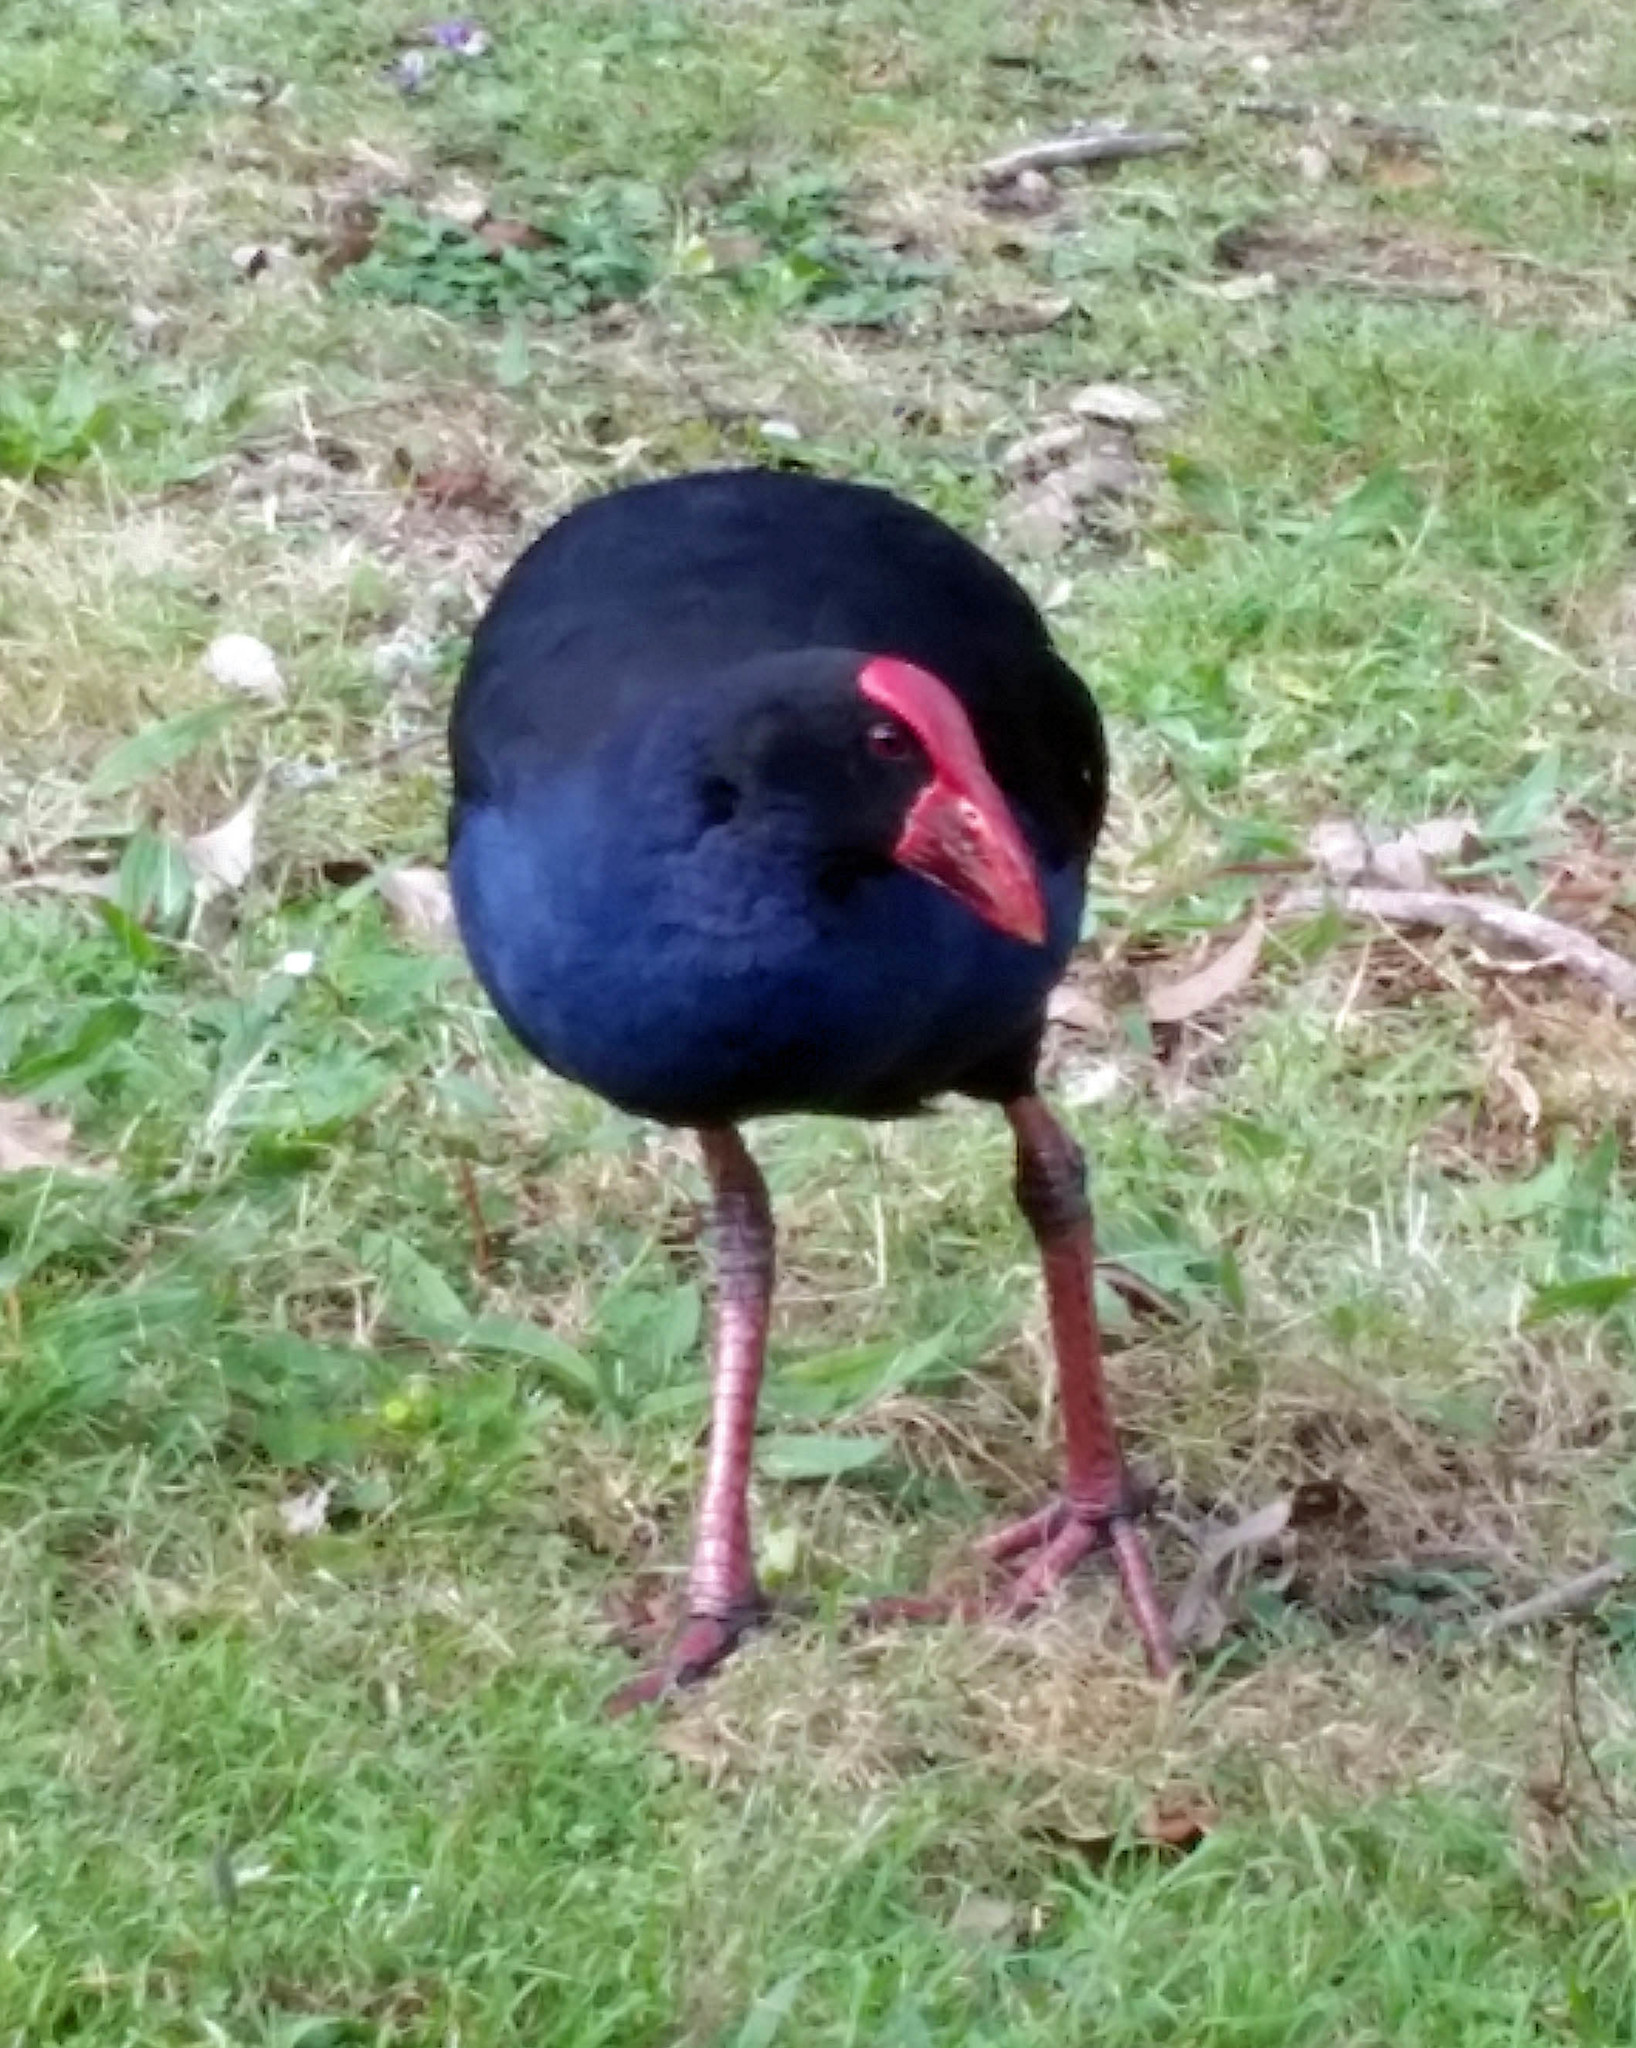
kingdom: Animalia
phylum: Chordata
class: Aves
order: Gruiformes
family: Rallidae
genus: Porphyrio
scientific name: Porphyrio melanotus
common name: Australasian swamphen
